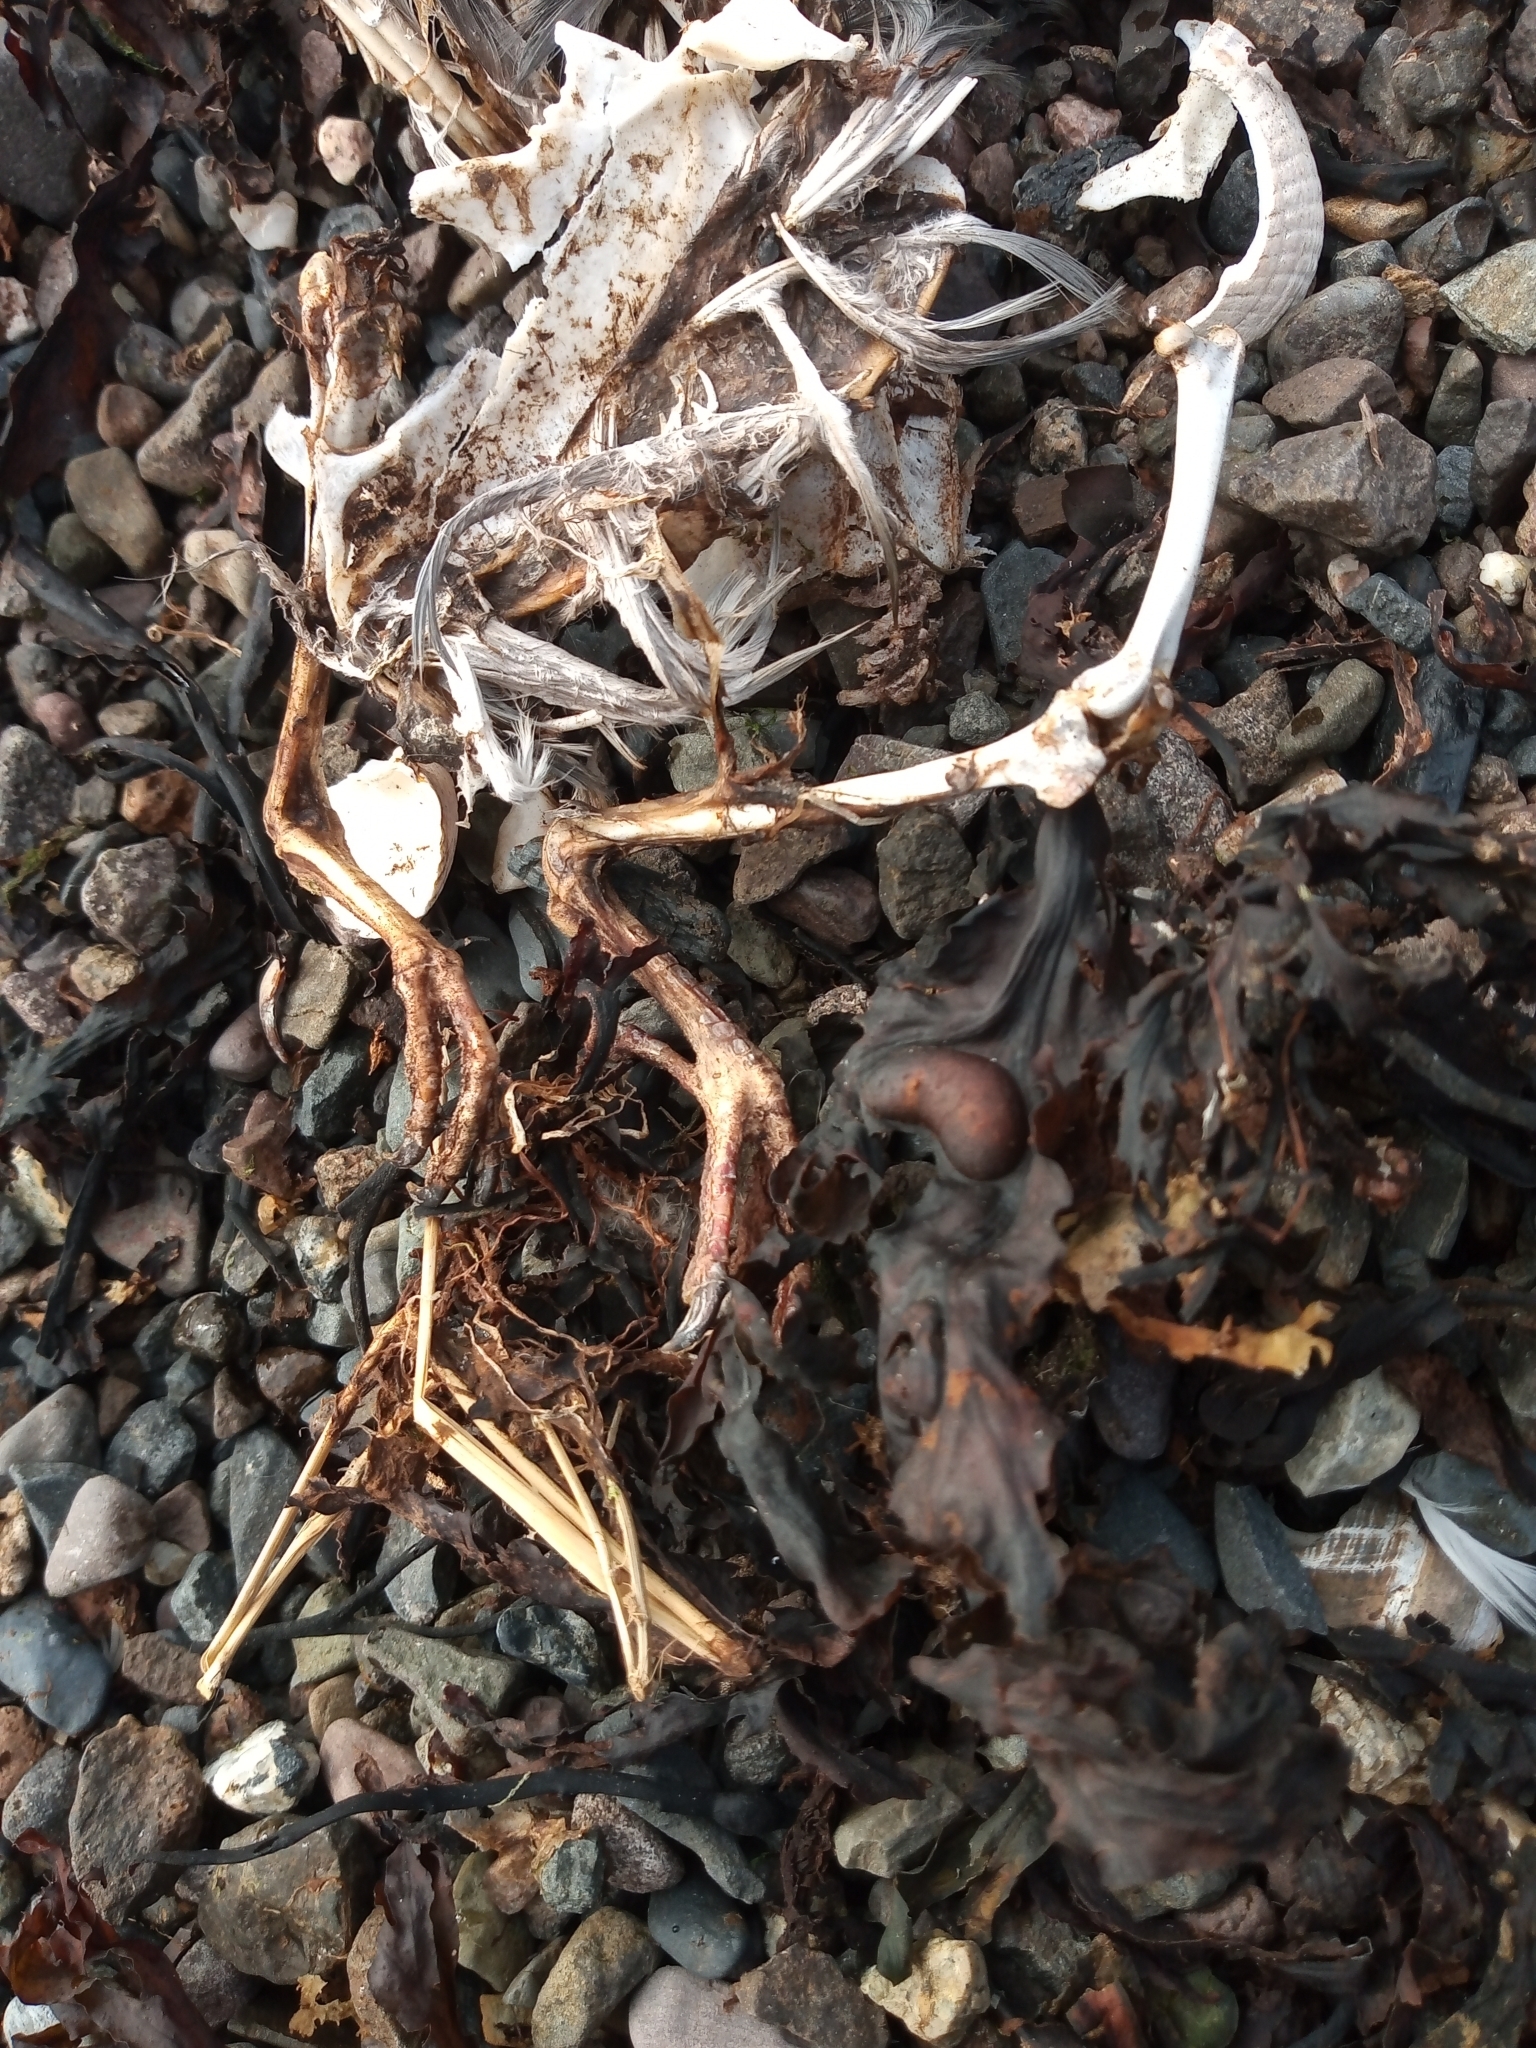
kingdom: Animalia
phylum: Chordata
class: Aves
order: Columbiformes
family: Columbidae
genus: Columba
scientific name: Columba livia
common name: Rock pigeon
